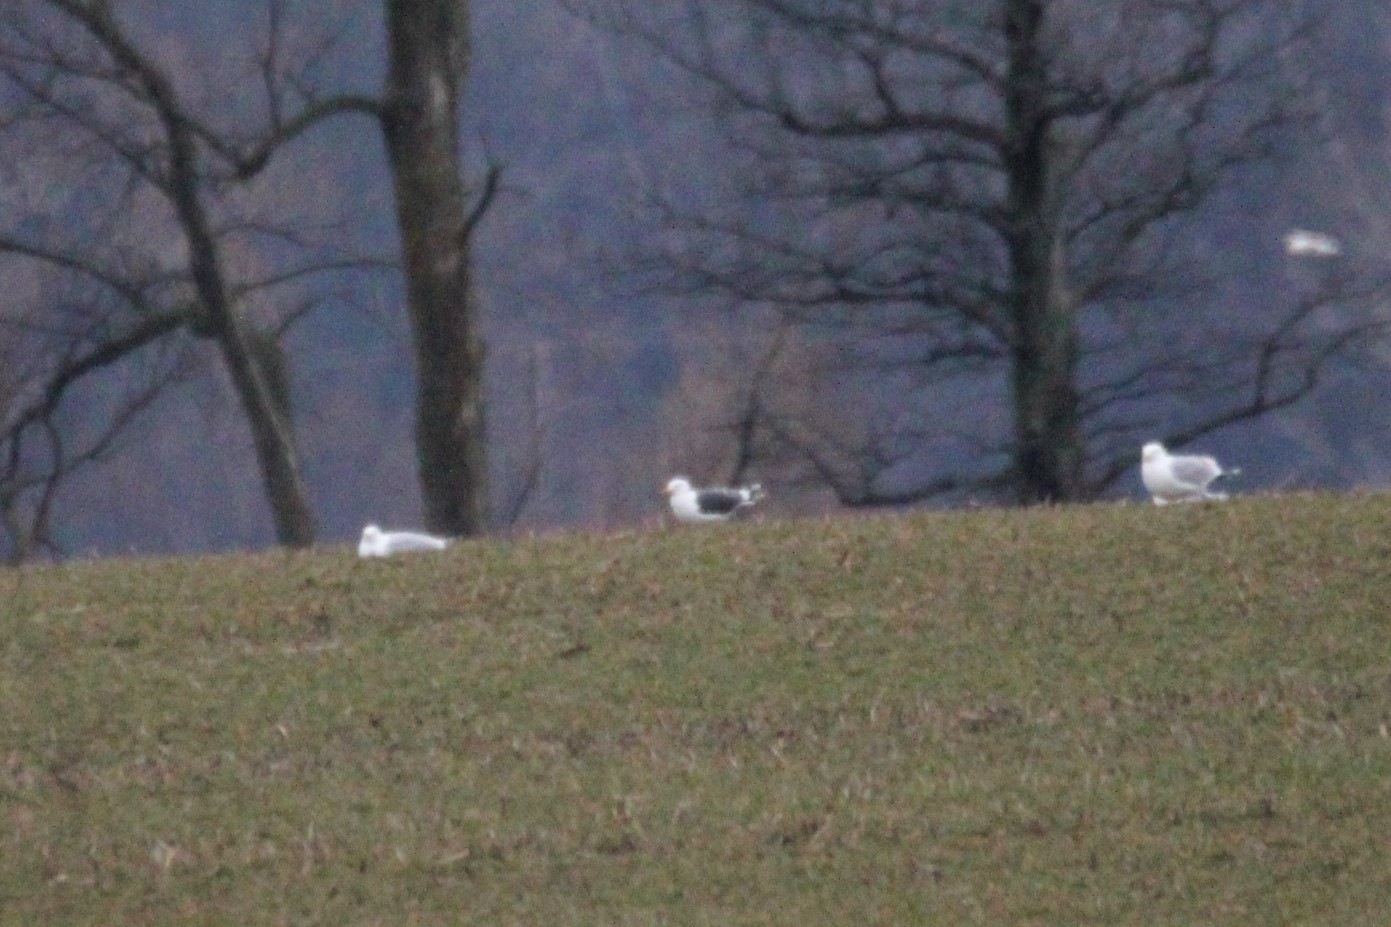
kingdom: Animalia
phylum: Chordata
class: Aves
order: Charadriiformes
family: Laridae
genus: Larus
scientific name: Larus fuscus
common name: Lesser black-backed gull
